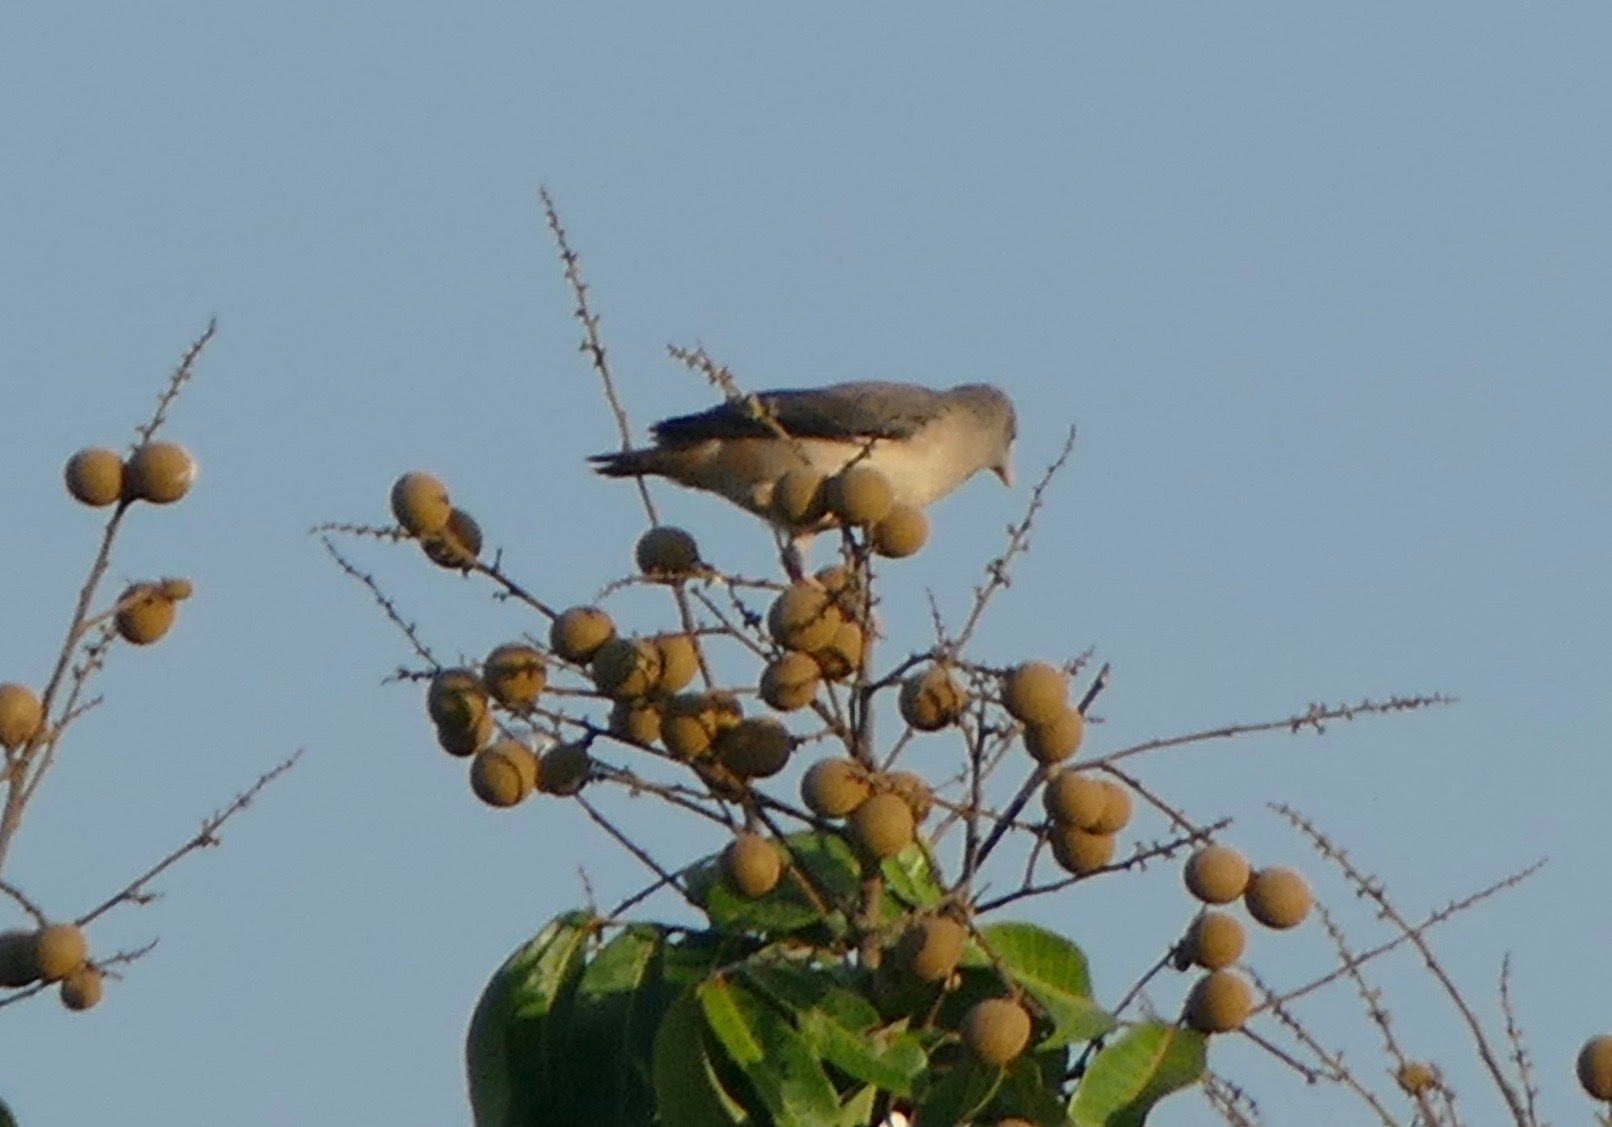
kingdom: Animalia
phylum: Chordata
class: Aves
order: Passeriformes
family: Sturnidae
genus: Sturnia
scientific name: Sturnia malabarica
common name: Chestnut-tailed starling
